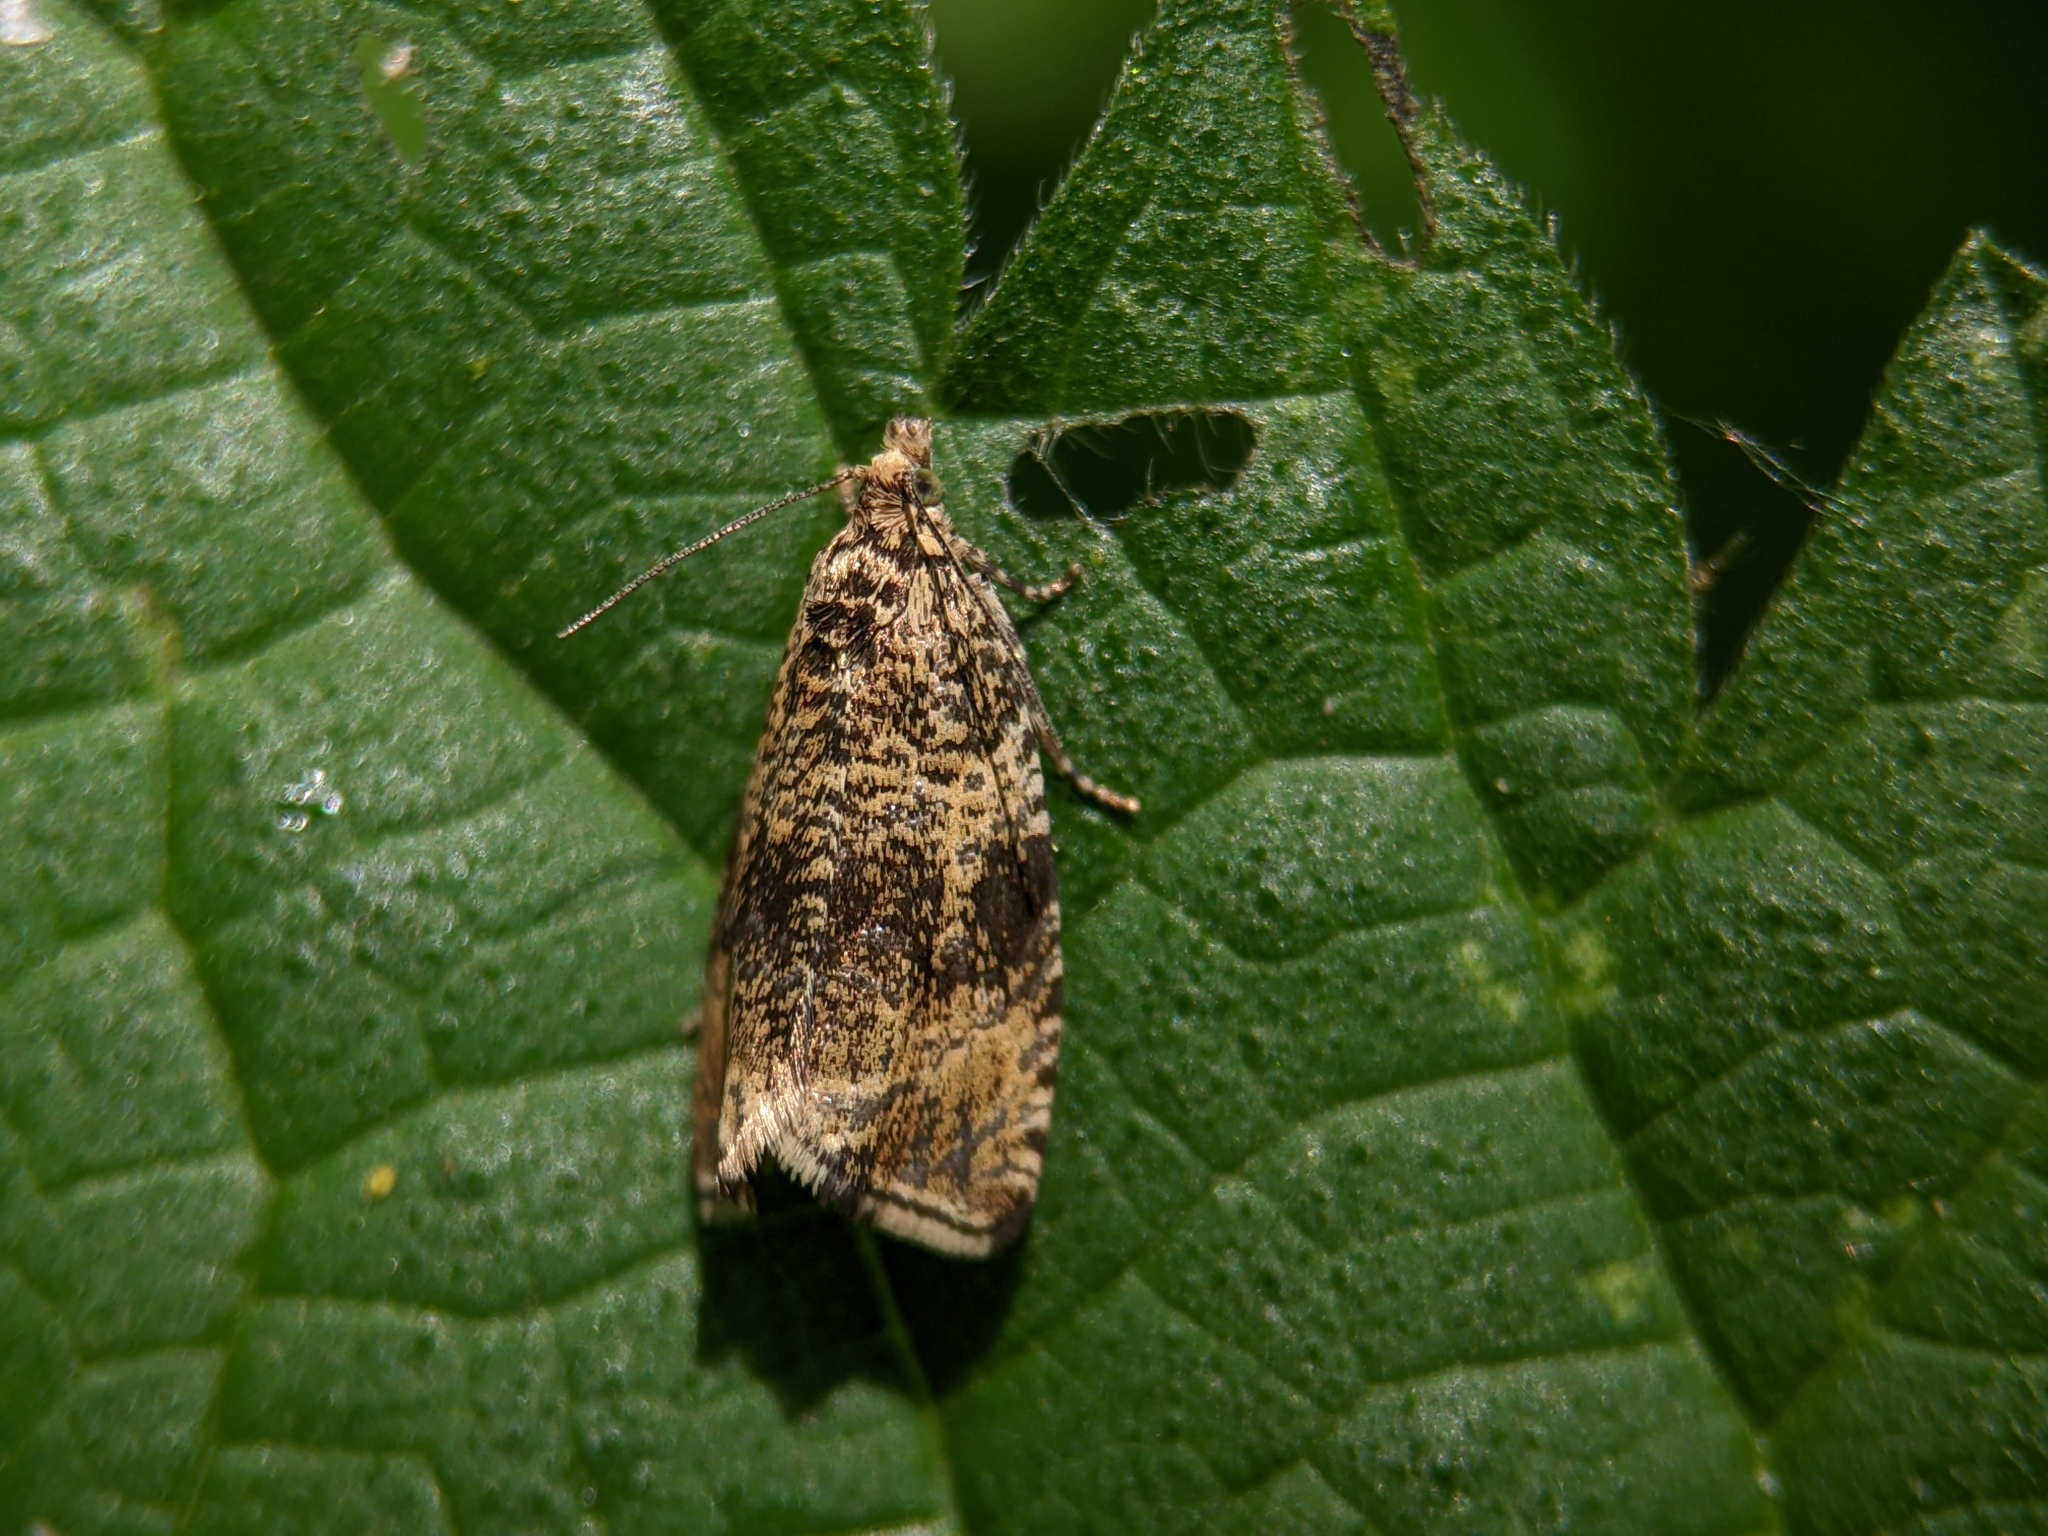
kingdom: Animalia
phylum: Arthropoda
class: Insecta
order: Lepidoptera
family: Tortricidae
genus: Syricoris
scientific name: Syricoris lacunana
